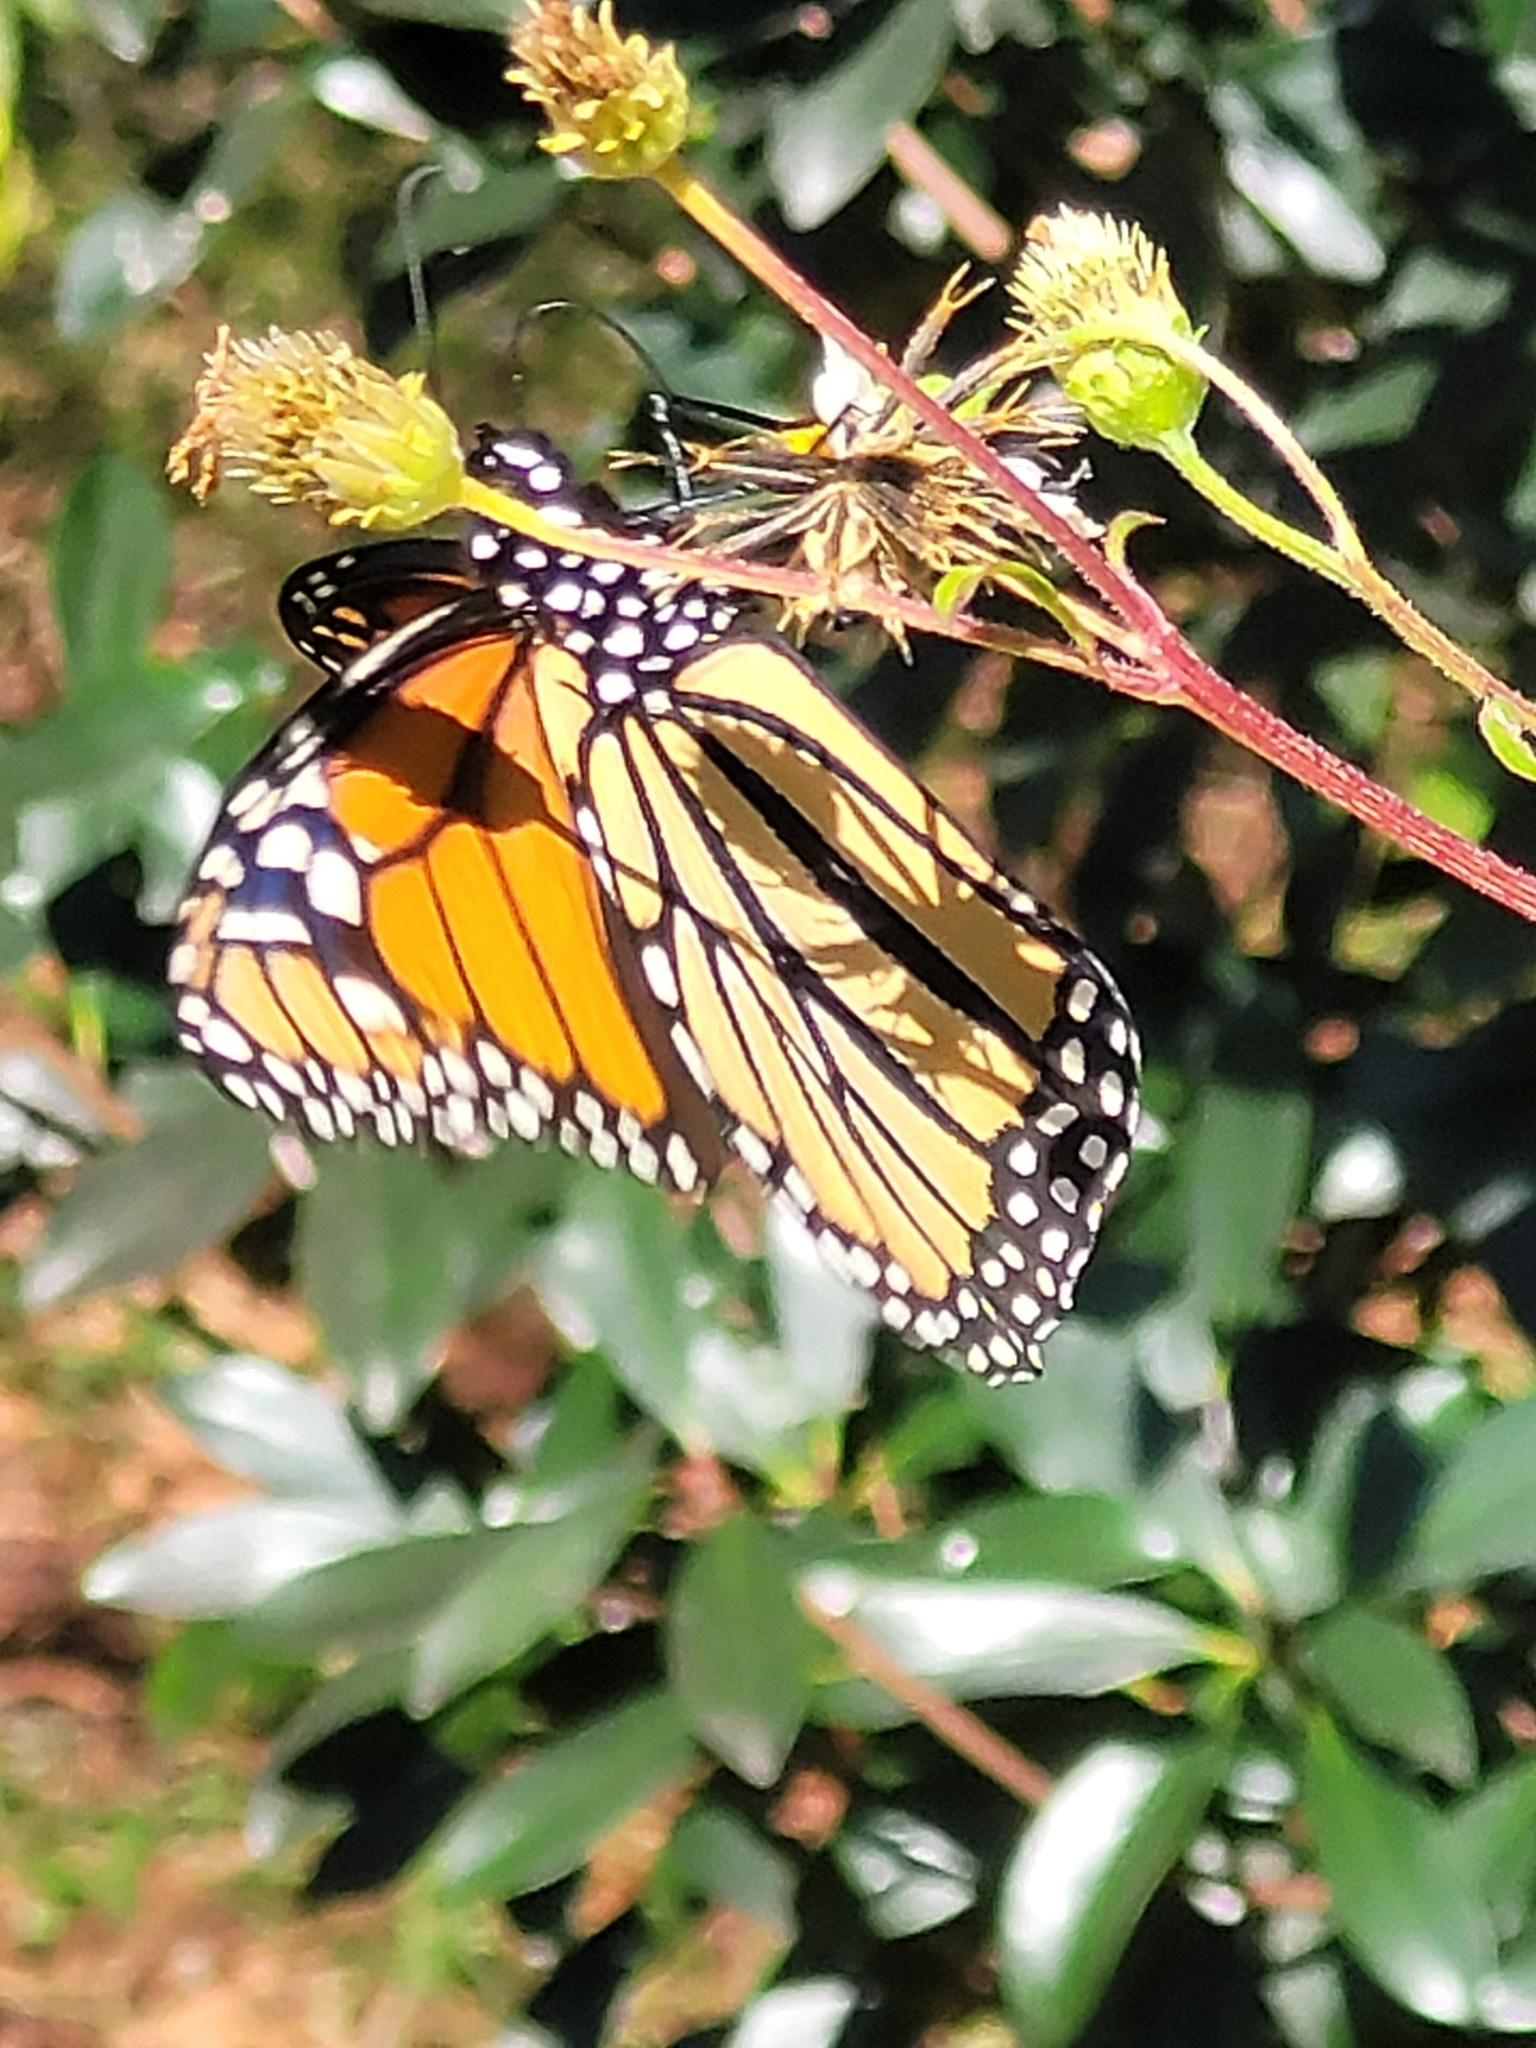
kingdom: Animalia
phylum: Arthropoda
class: Insecta
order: Lepidoptera
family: Nymphalidae
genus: Danaus
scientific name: Danaus plexippus
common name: Monarch
